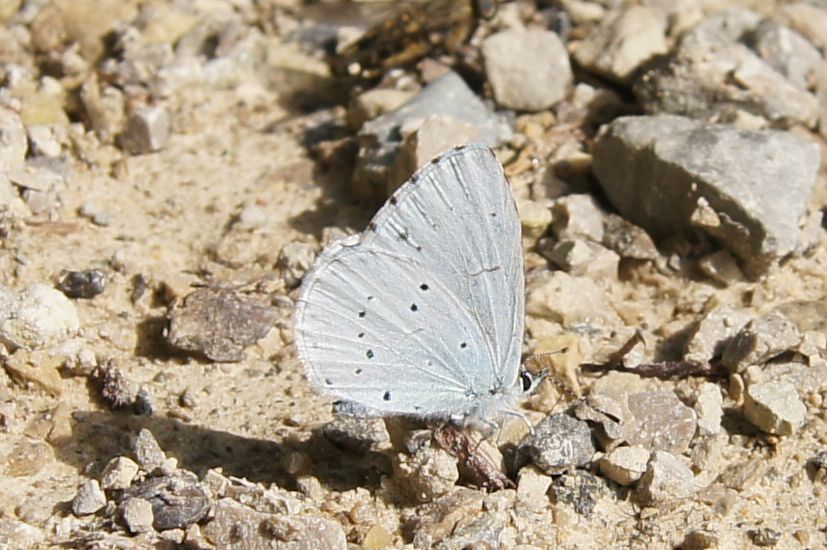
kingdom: Animalia
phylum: Arthropoda
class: Insecta
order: Lepidoptera
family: Lycaenidae
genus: Celastrina
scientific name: Celastrina argiolus
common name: Holly blue
